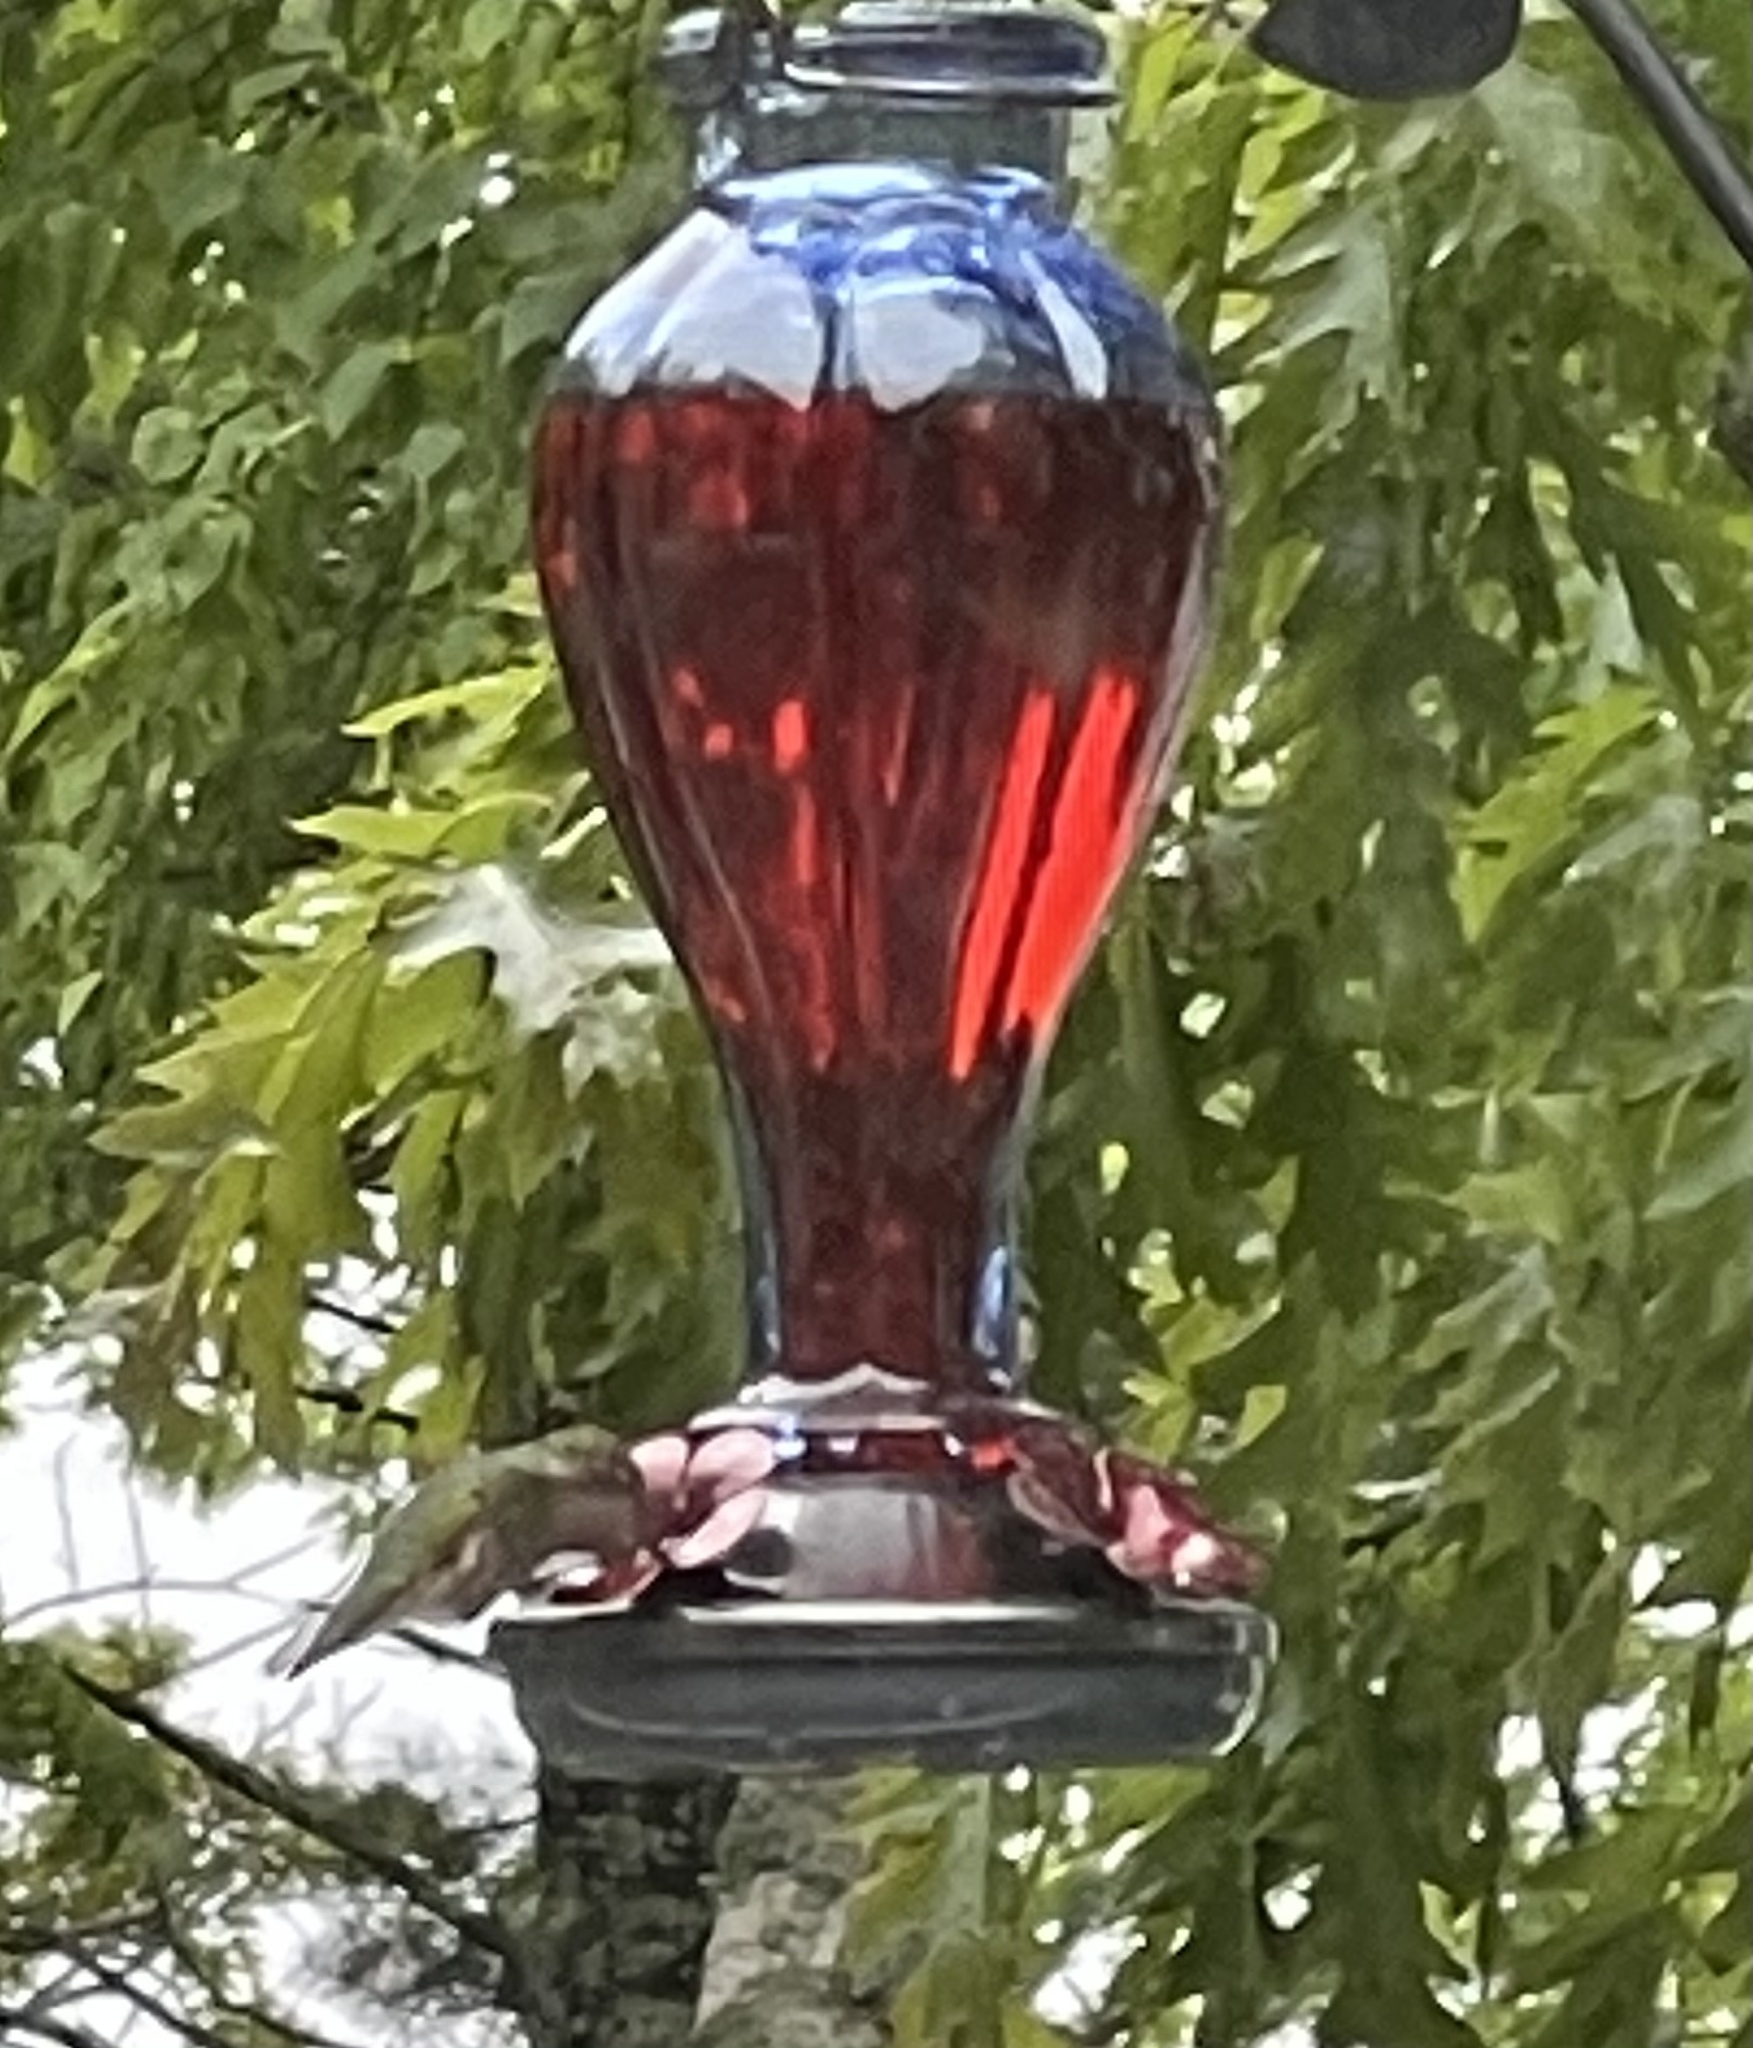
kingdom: Animalia
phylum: Chordata
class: Aves
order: Apodiformes
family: Trochilidae
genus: Archilochus
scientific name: Archilochus colubris
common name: Ruby-throated hummingbird
